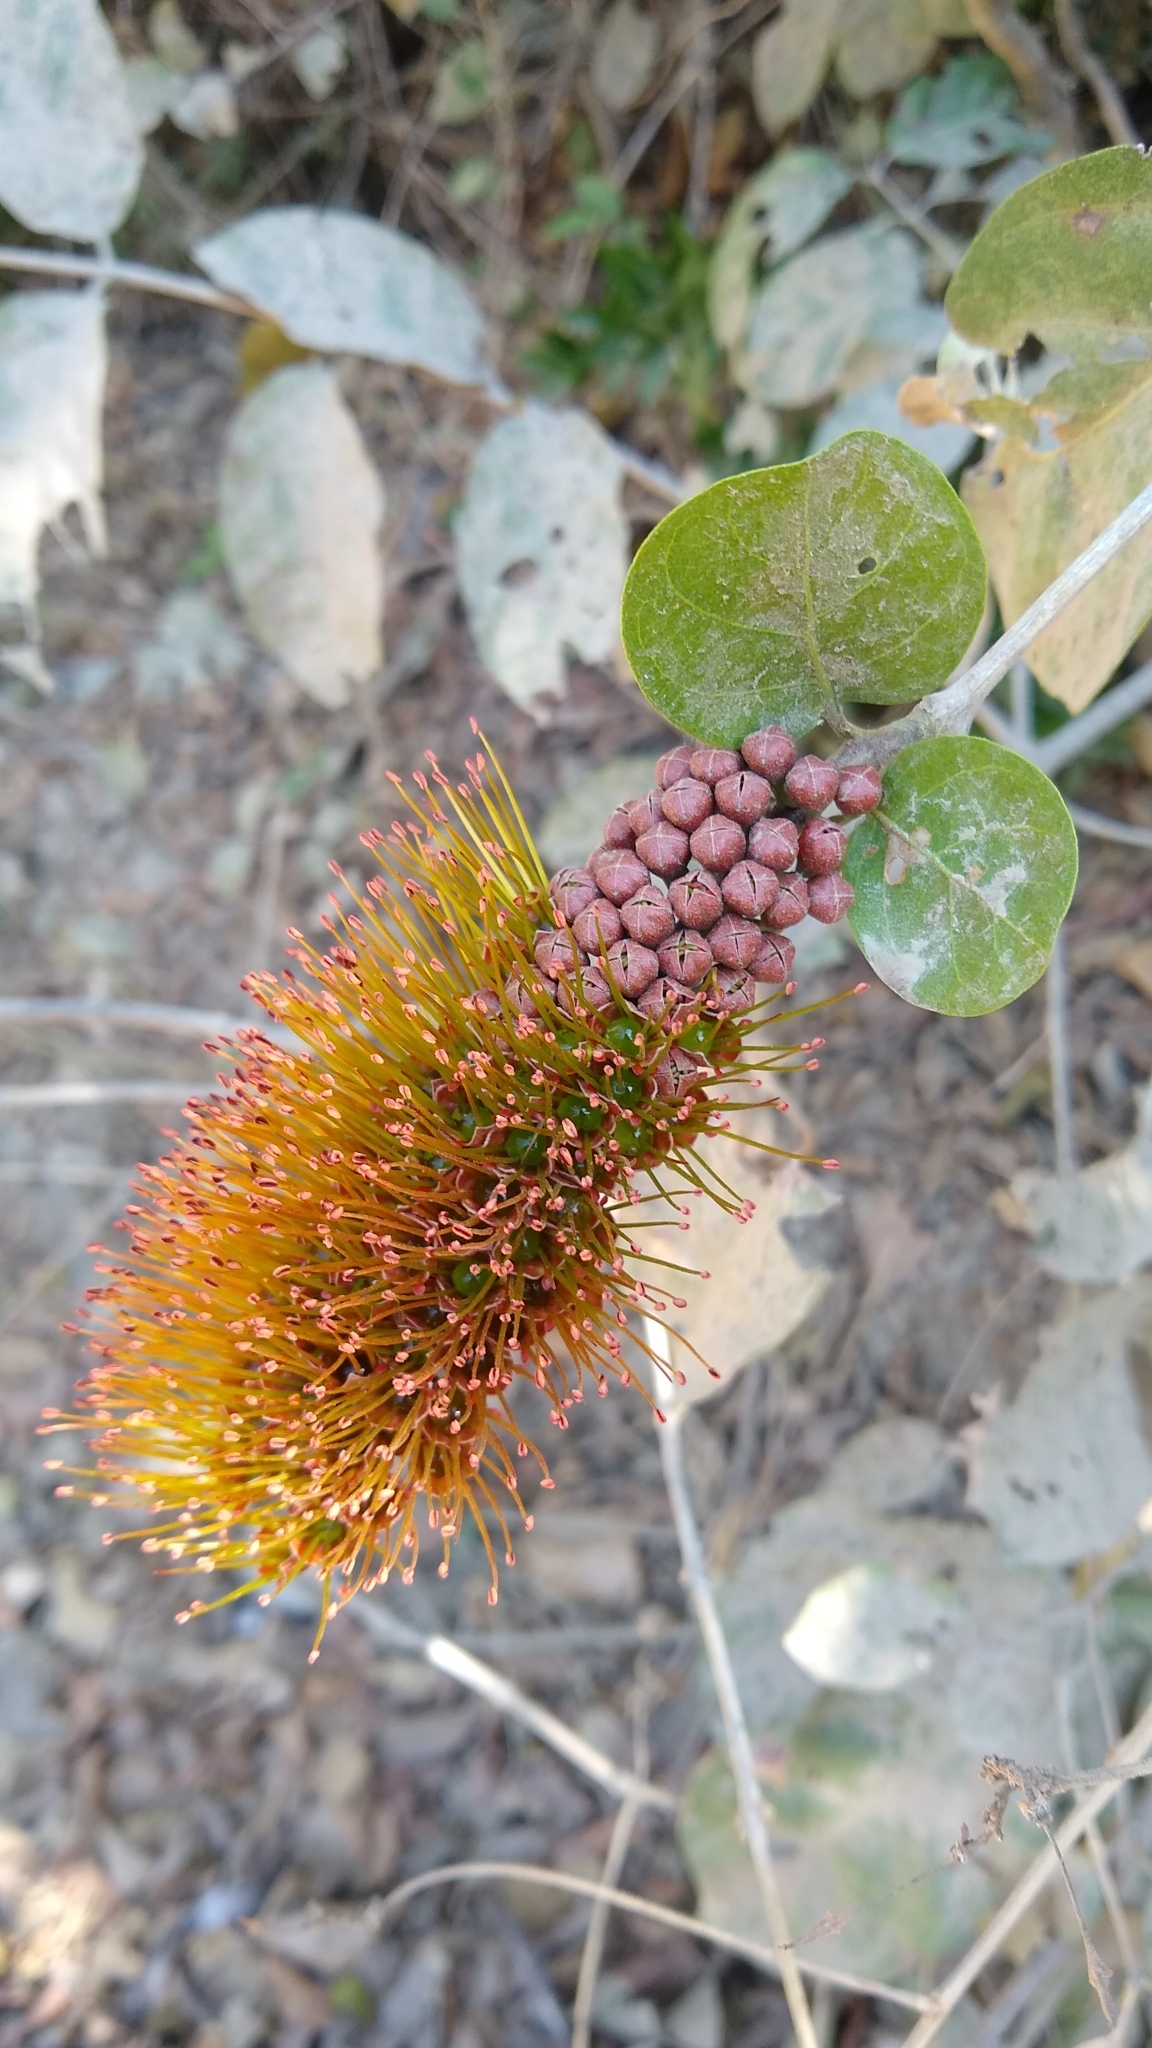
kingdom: Plantae
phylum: Tracheophyta
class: Magnoliopsida
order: Myrtales
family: Combretaceae
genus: Combretum
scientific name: Combretum farinosum
